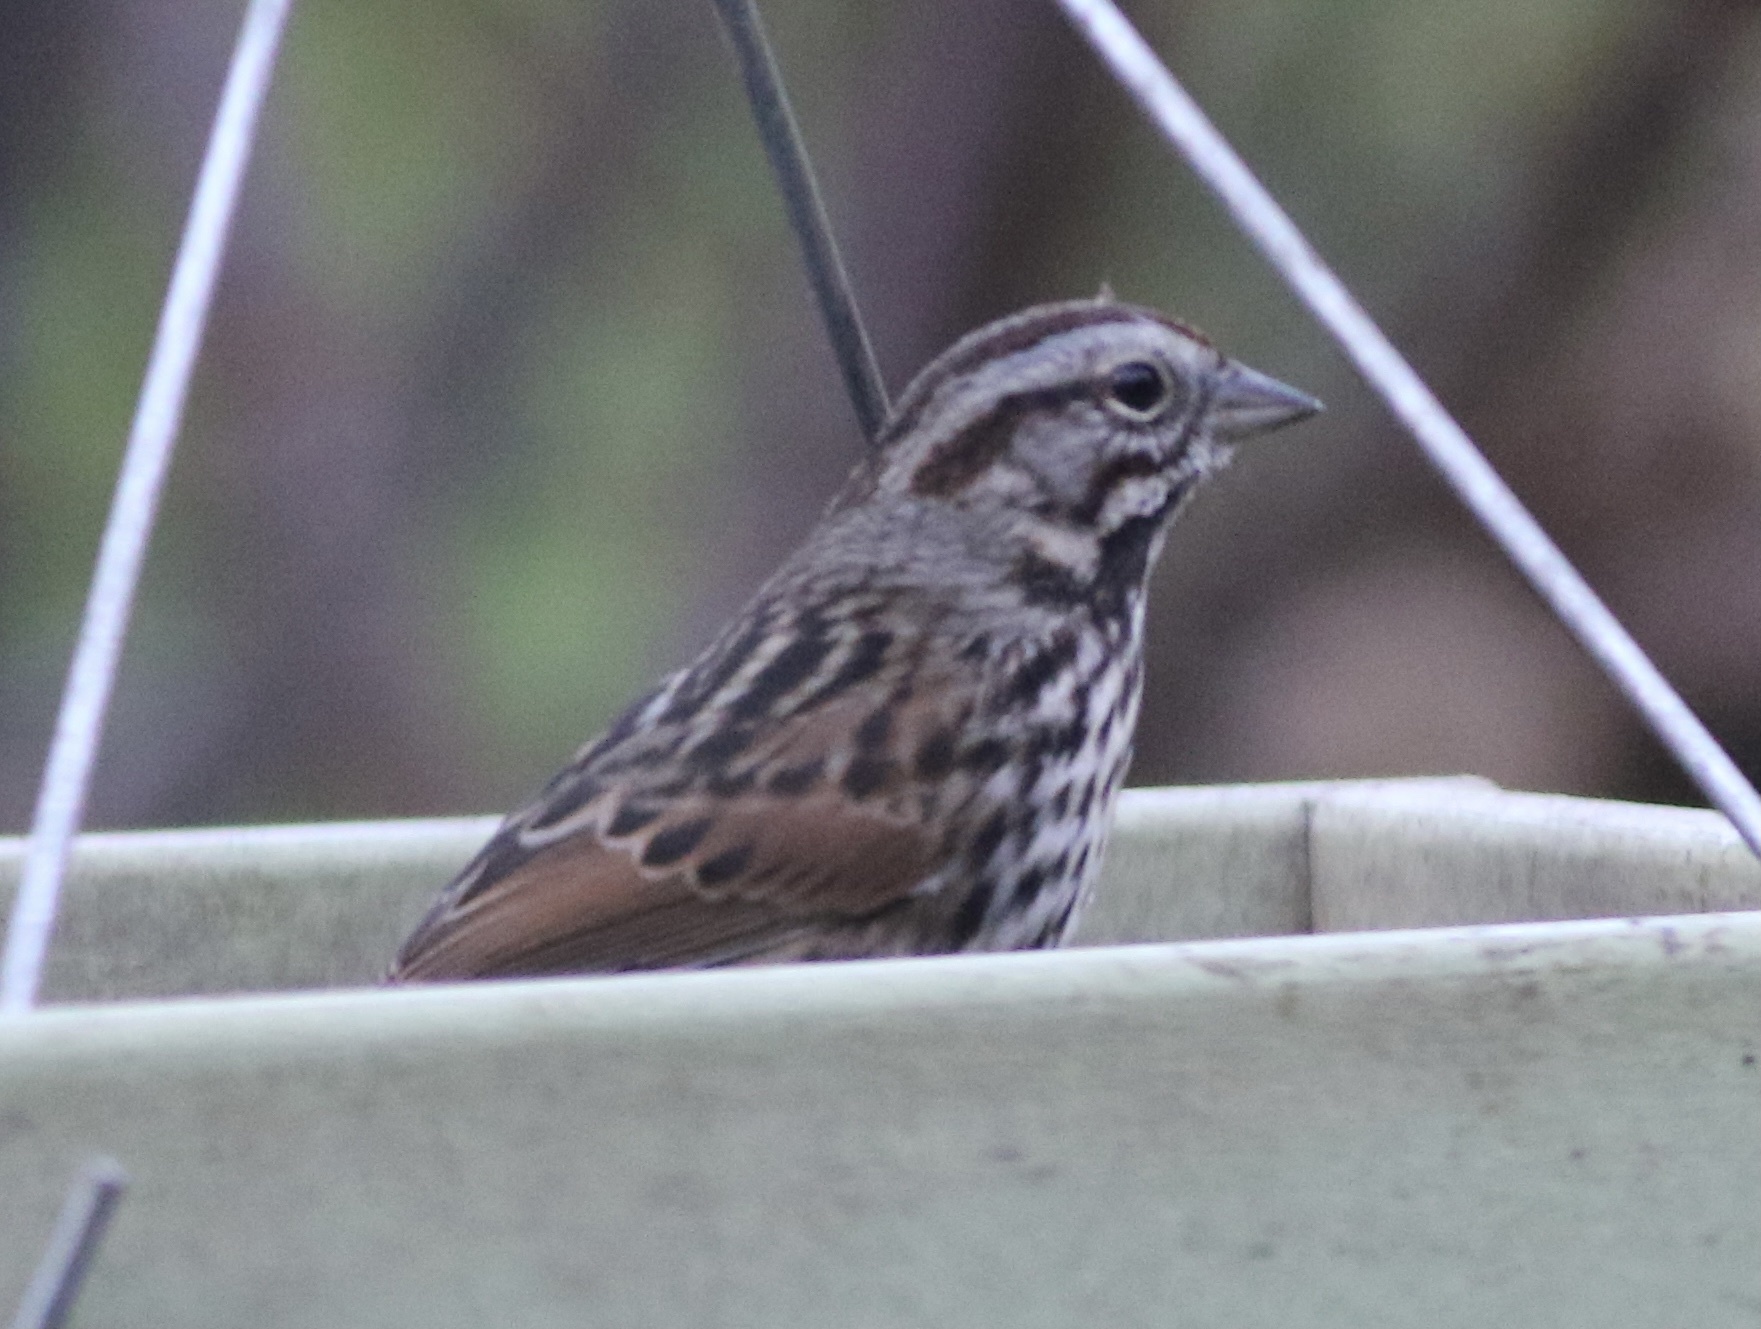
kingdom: Animalia
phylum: Chordata
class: Aves
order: Passeriformes
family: Passerellidae
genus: Melospiza
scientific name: Melospiza melodia
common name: Song sparrow
